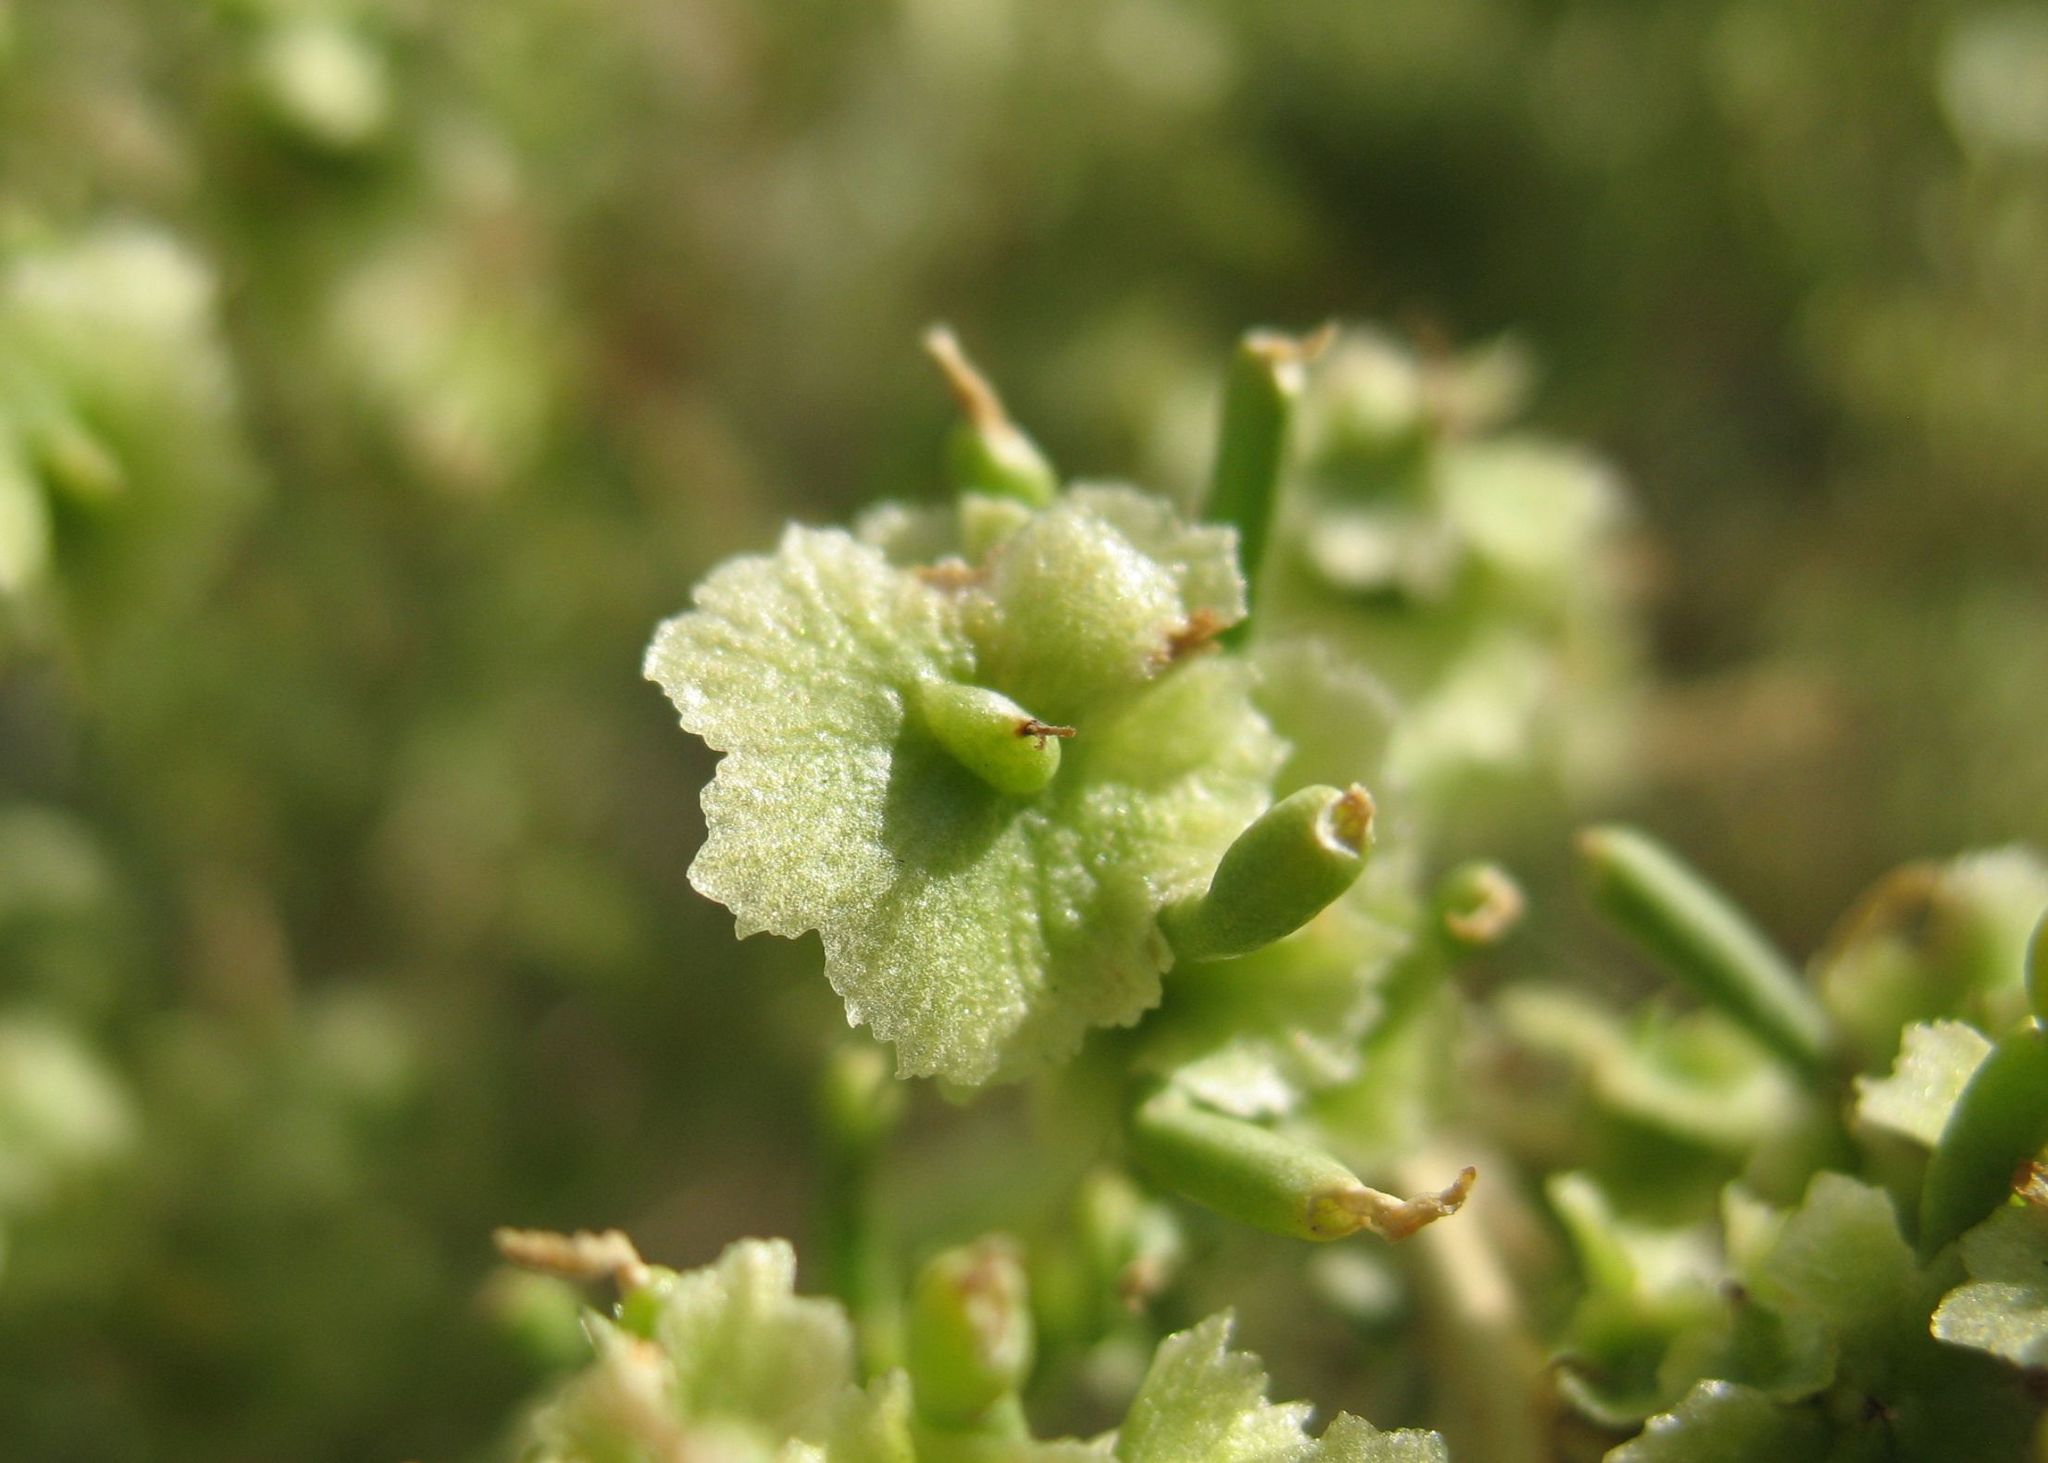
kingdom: Plantae
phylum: Tracheophyta
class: Magnoliopsida
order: Caryophyllales
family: Sarcobataceae
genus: Sarcobatus
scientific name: Sarcobatus vermiculatus
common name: Greasewood
